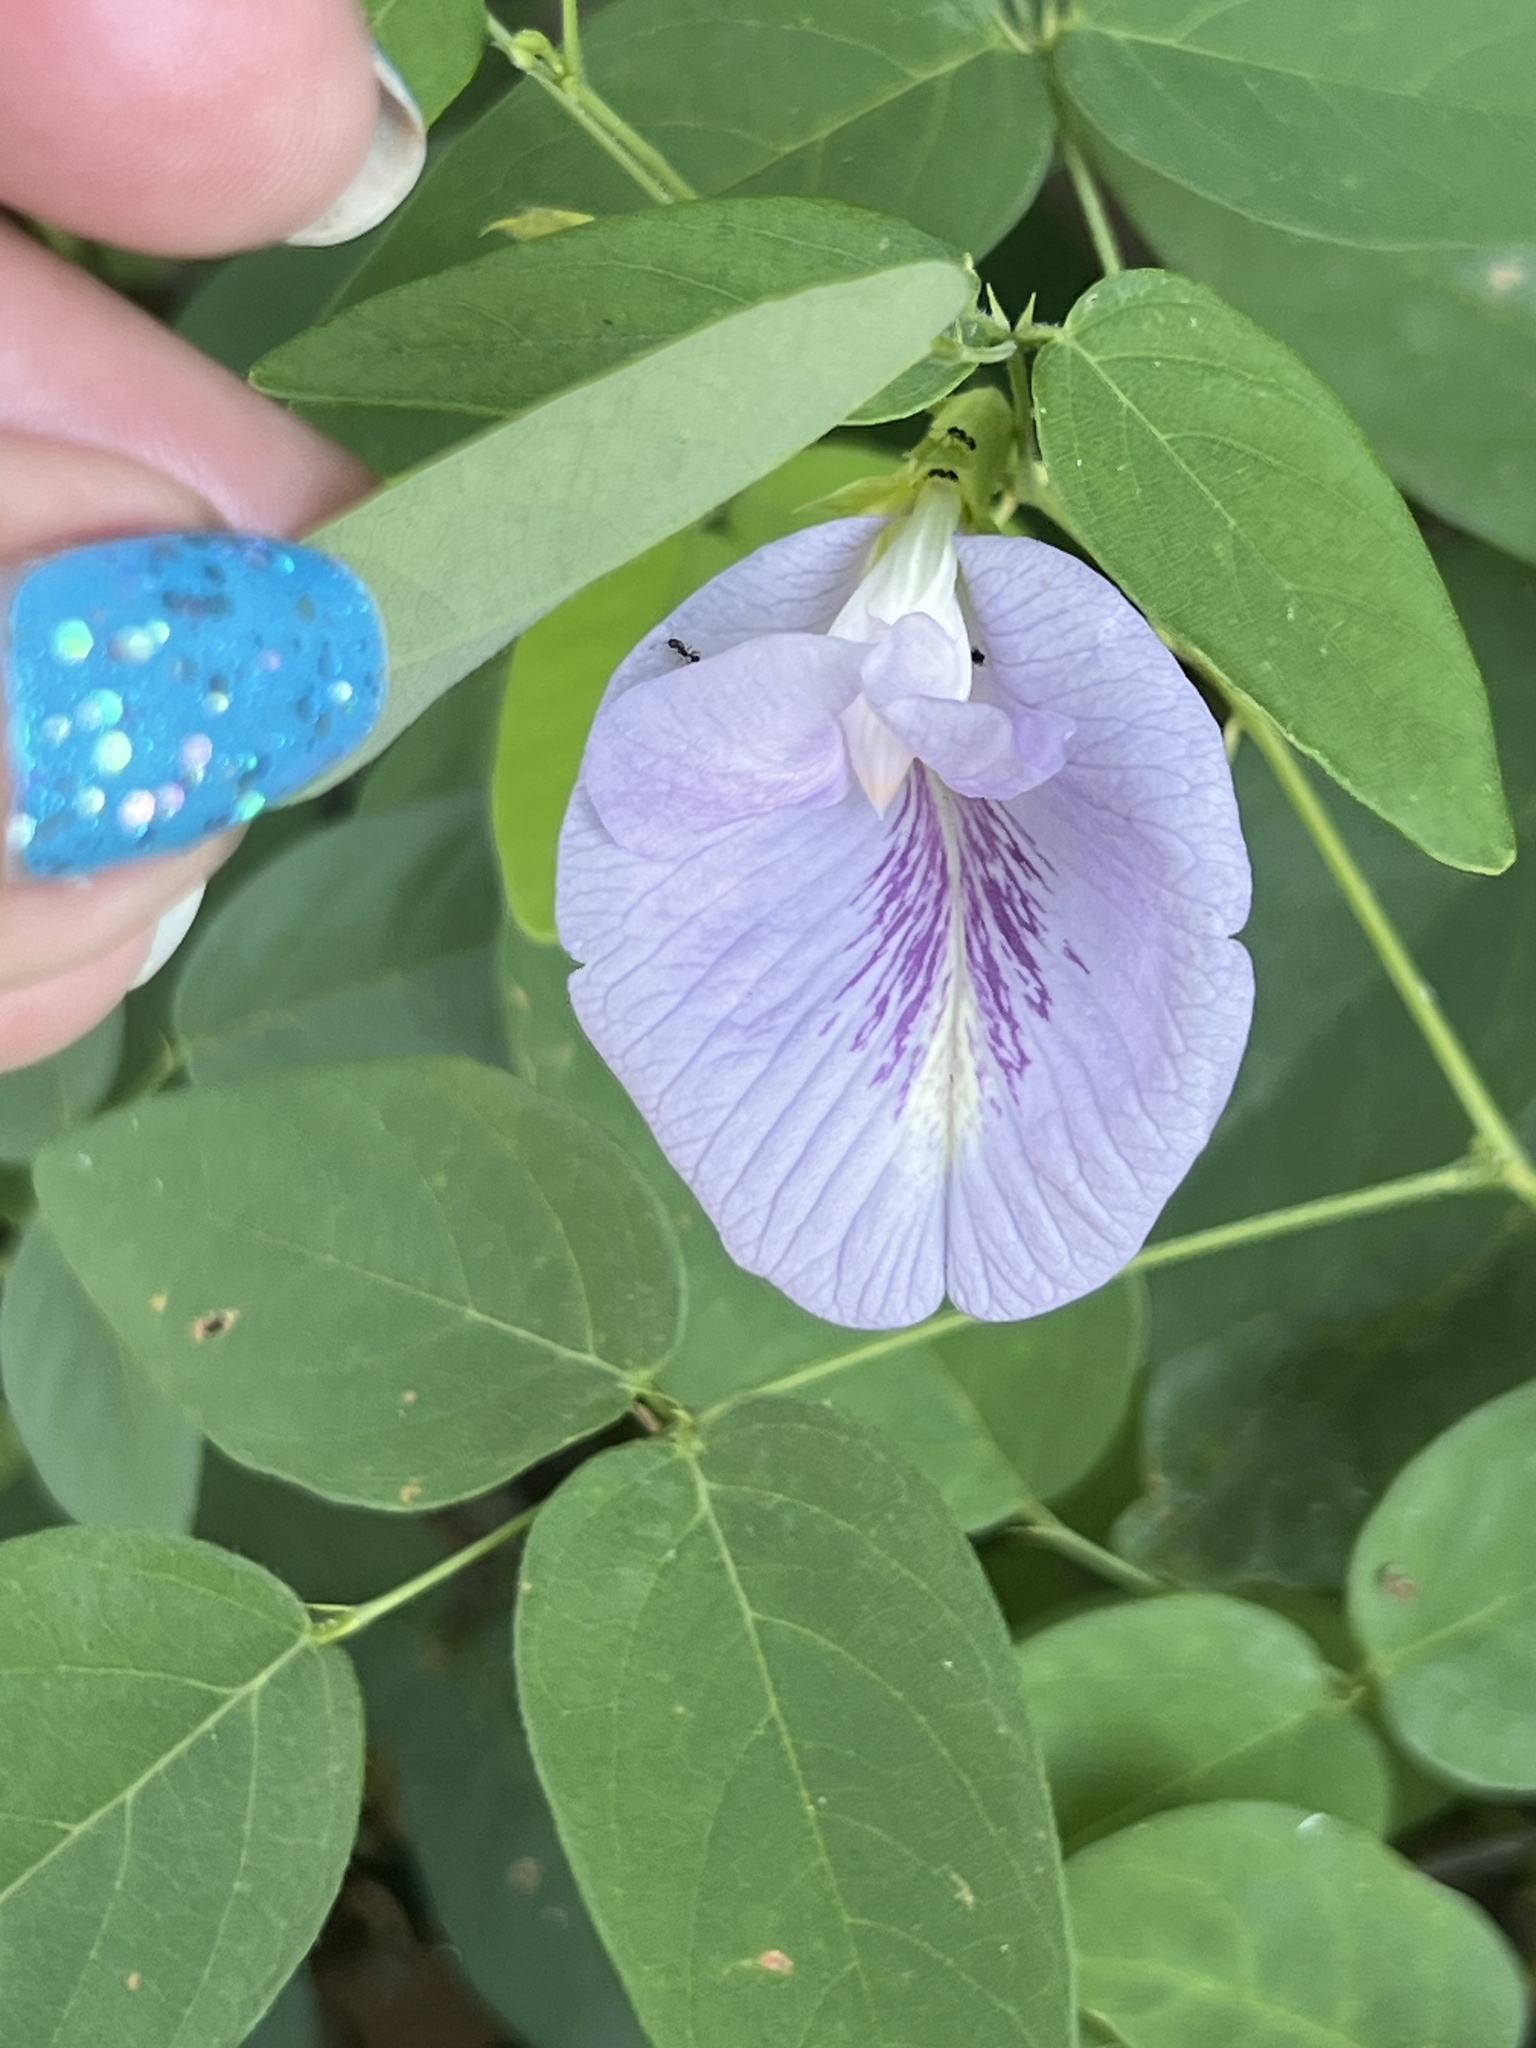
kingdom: Plantae
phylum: Tracheophyta
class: Magnoliopsida
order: Fabales
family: Fabaceae
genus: Clitoria
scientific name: Clitoria mariana
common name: Butterfly-pea
